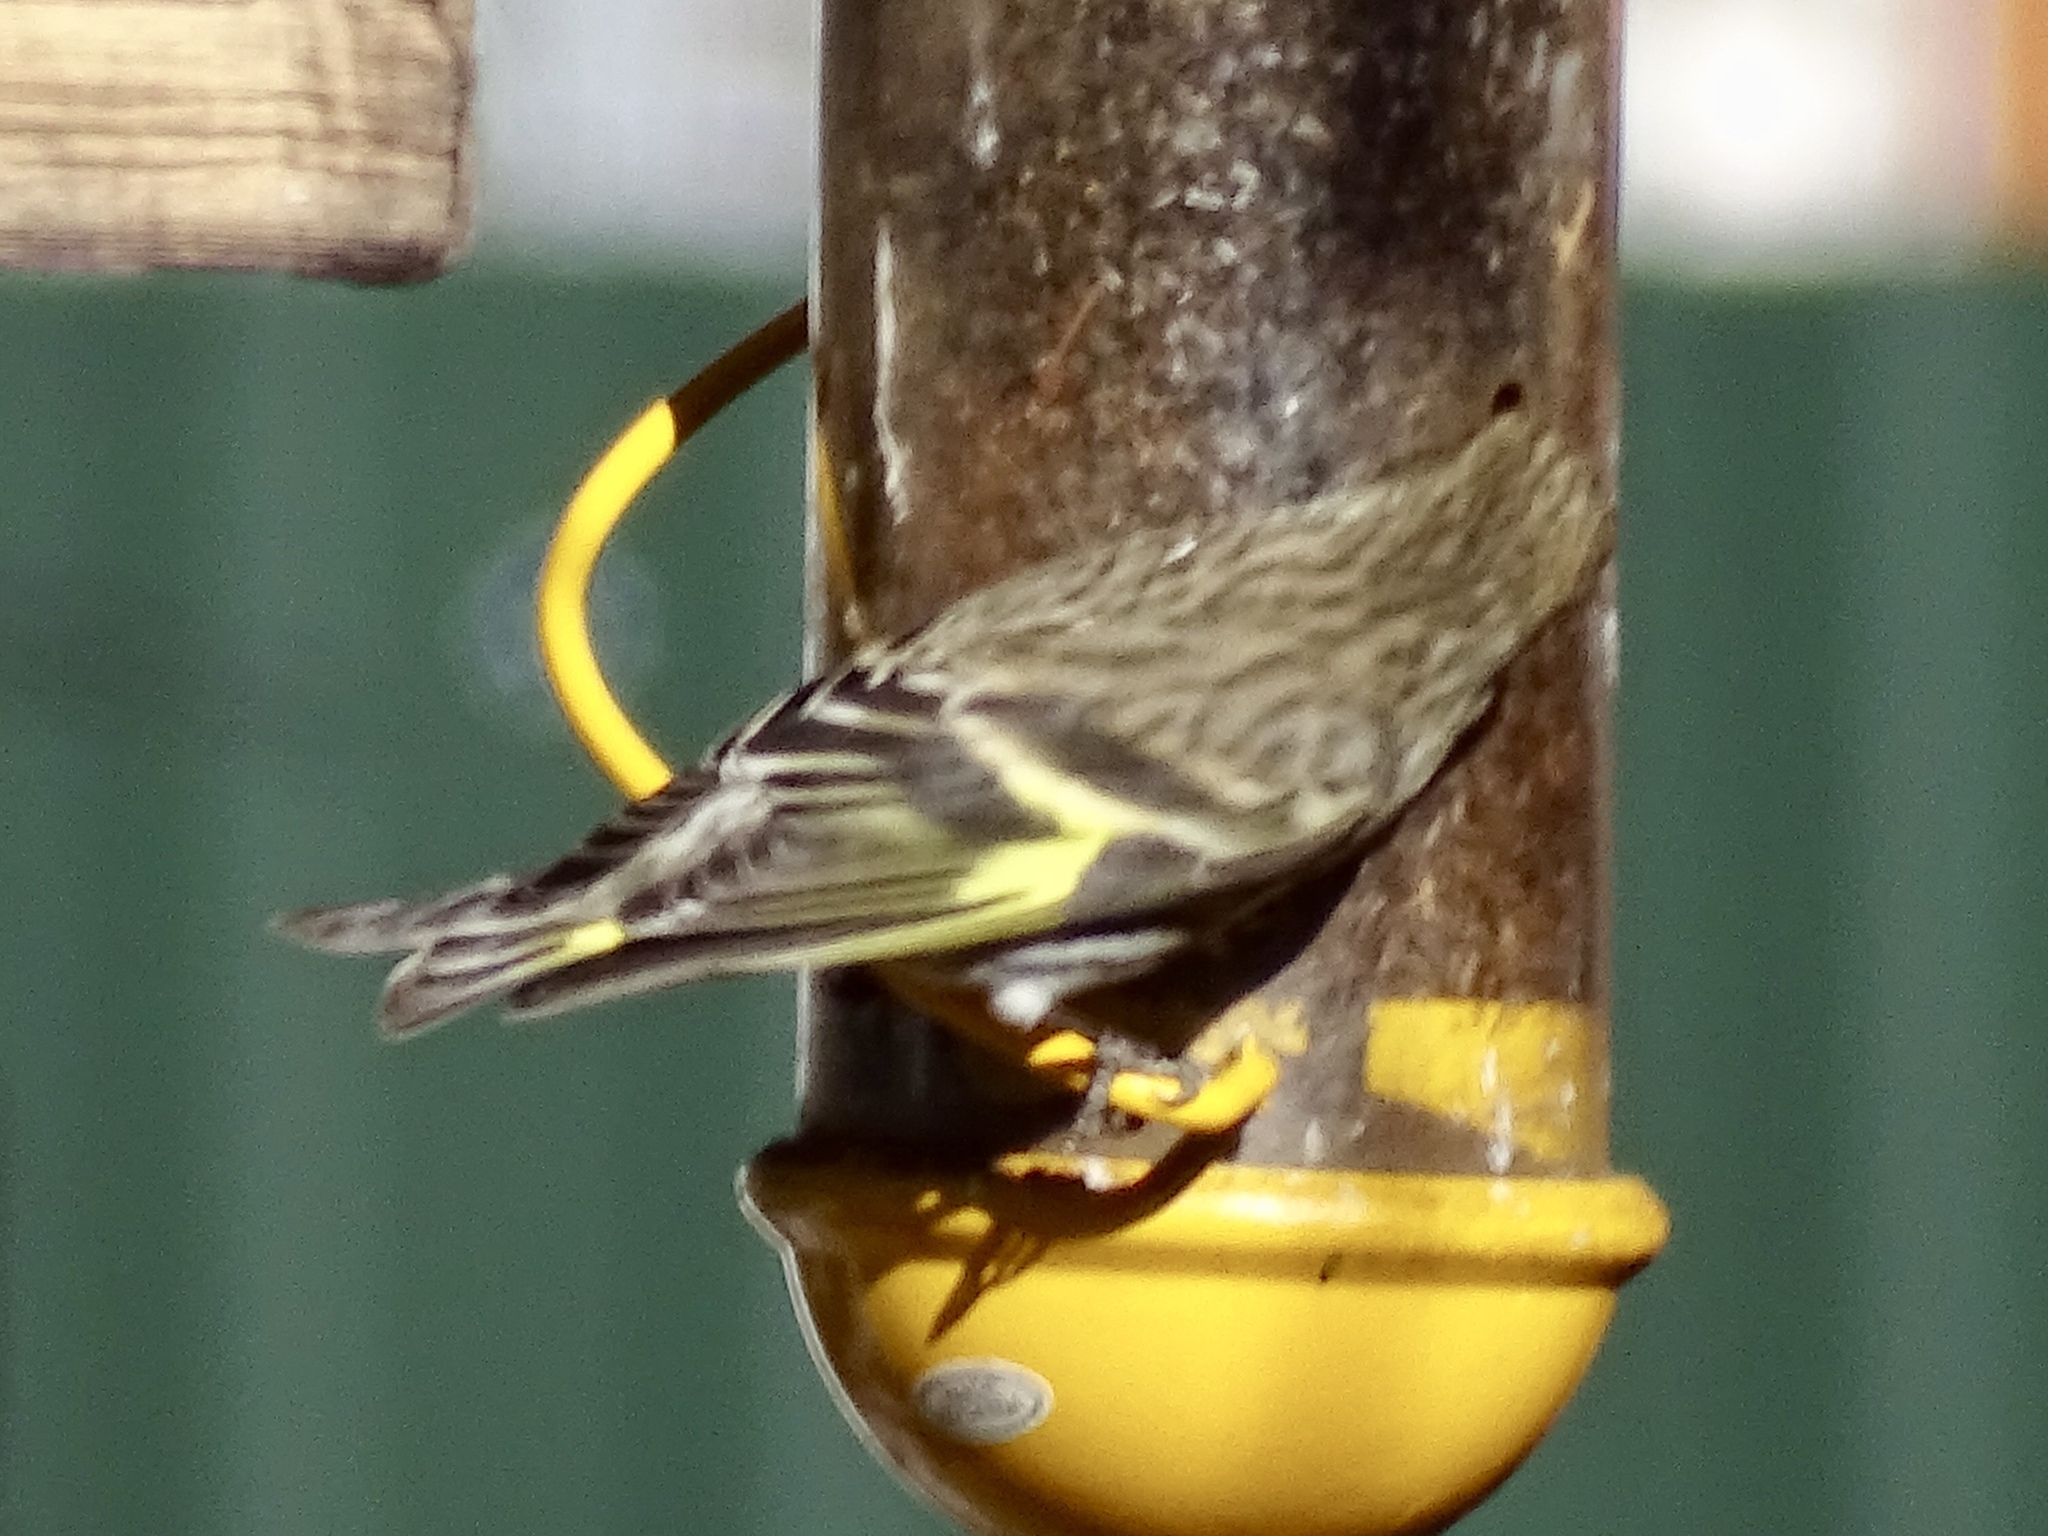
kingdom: Animalia
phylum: Chordata
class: Aves
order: Passeriformes
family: Fringillidae
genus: Spinus
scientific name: Spinus pinus
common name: Pine siskin
